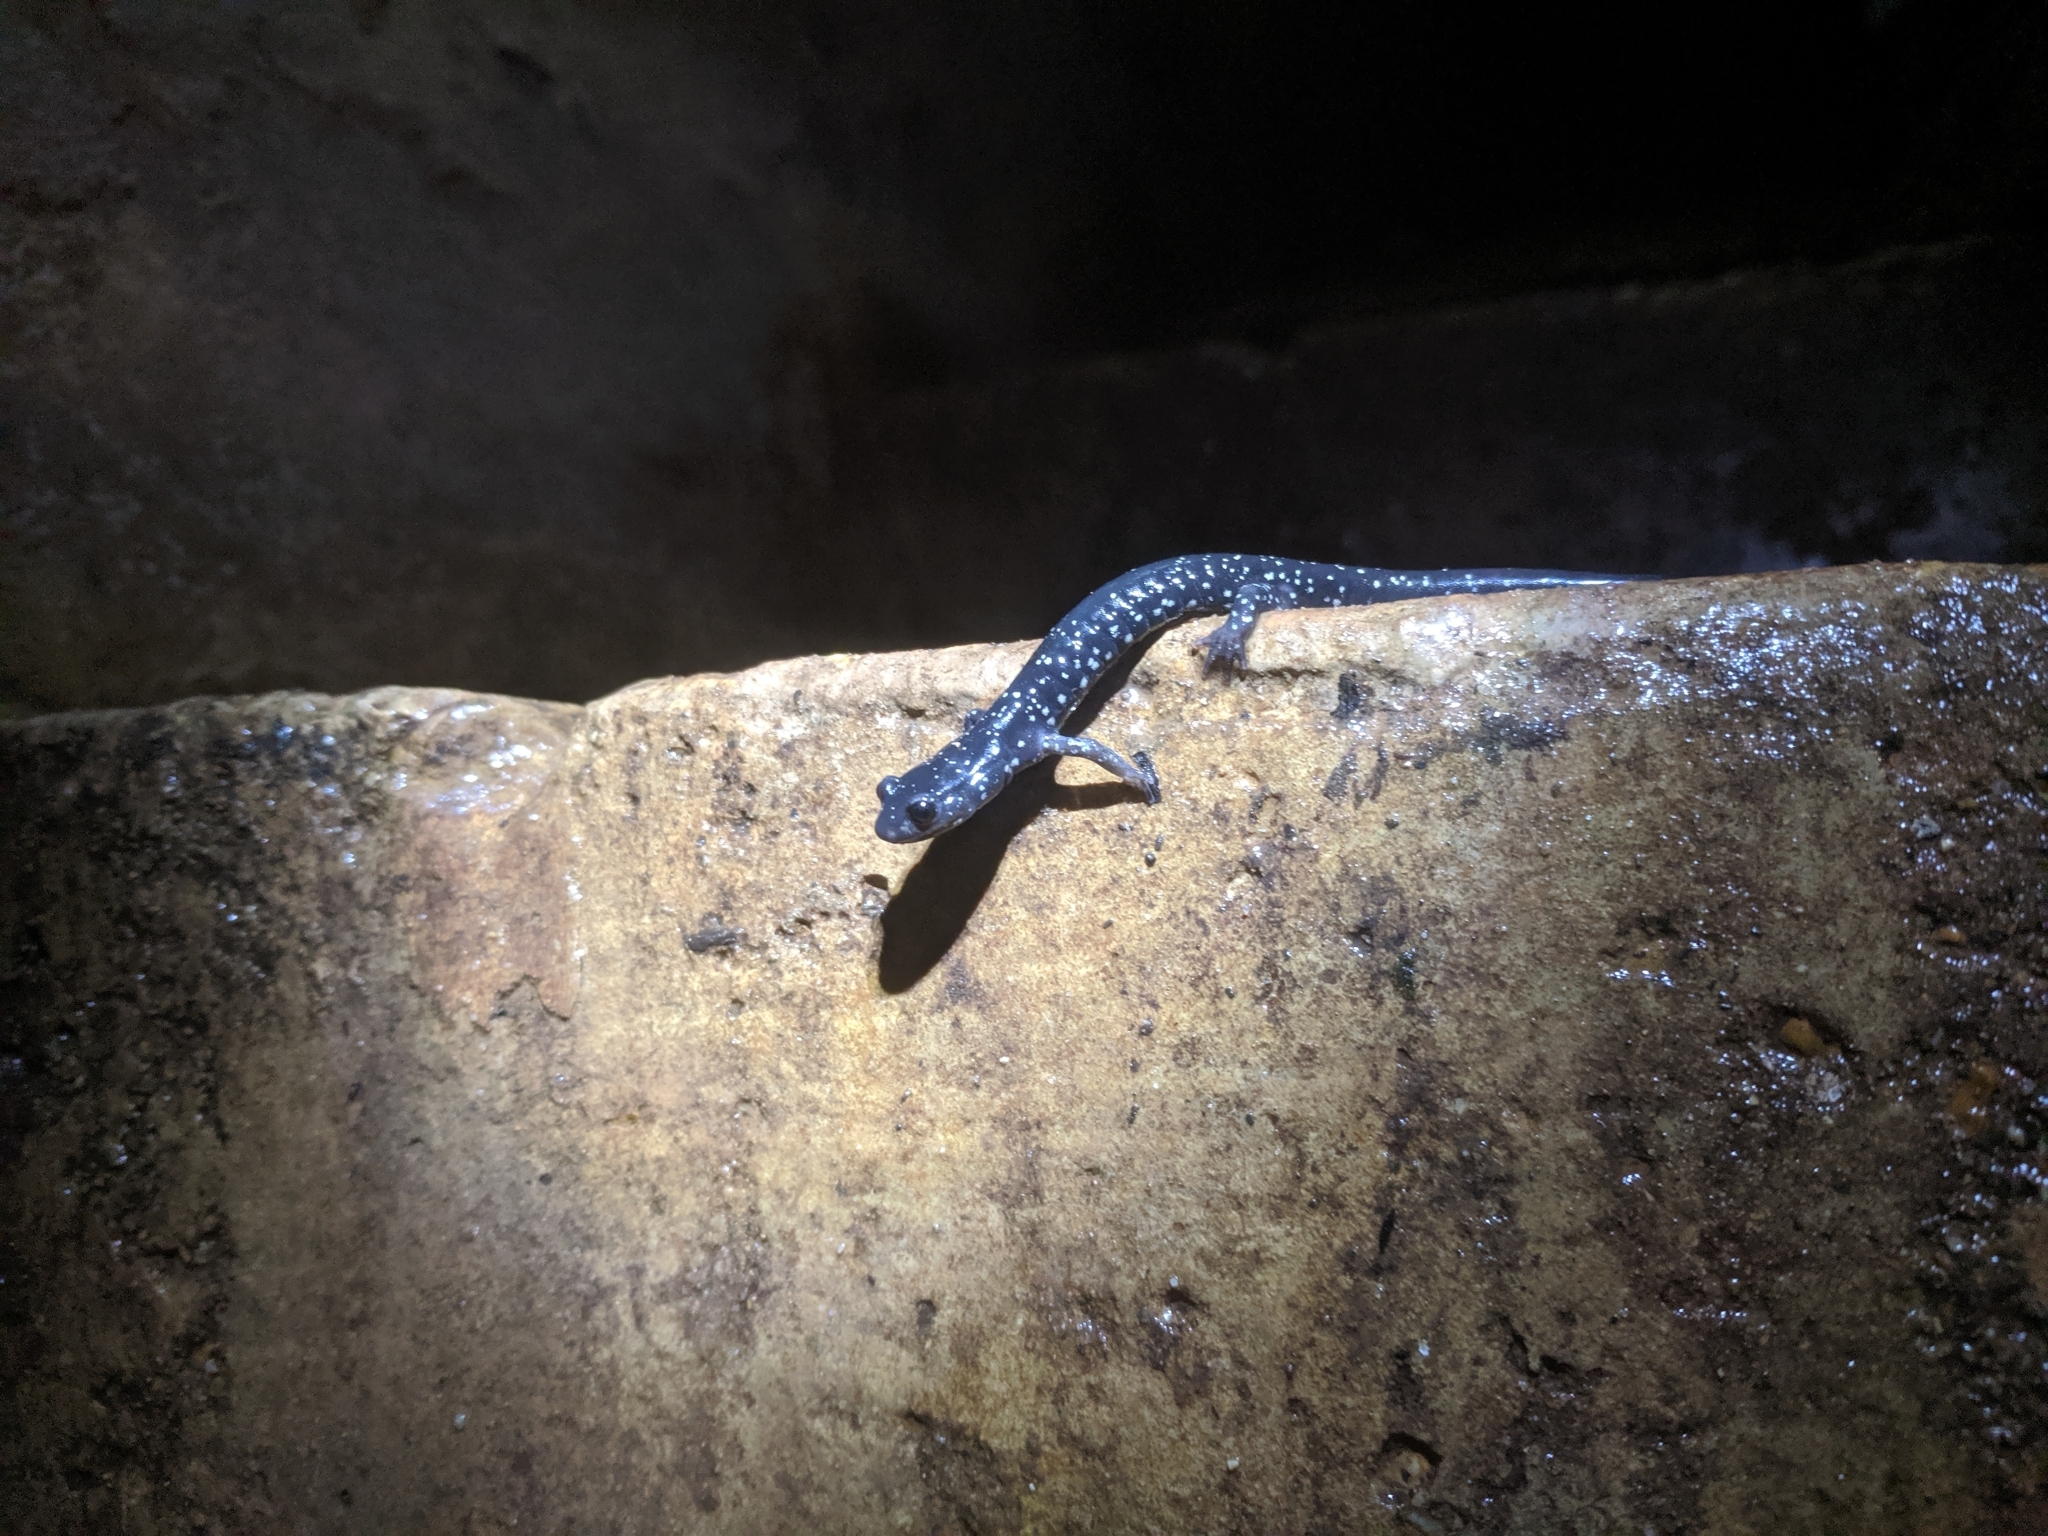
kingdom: Animalia
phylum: Chordata
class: Amphibia
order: Caudata
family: Plethodontidae
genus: Plethodon
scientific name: Plethodon albagula
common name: Western slimy salamander
